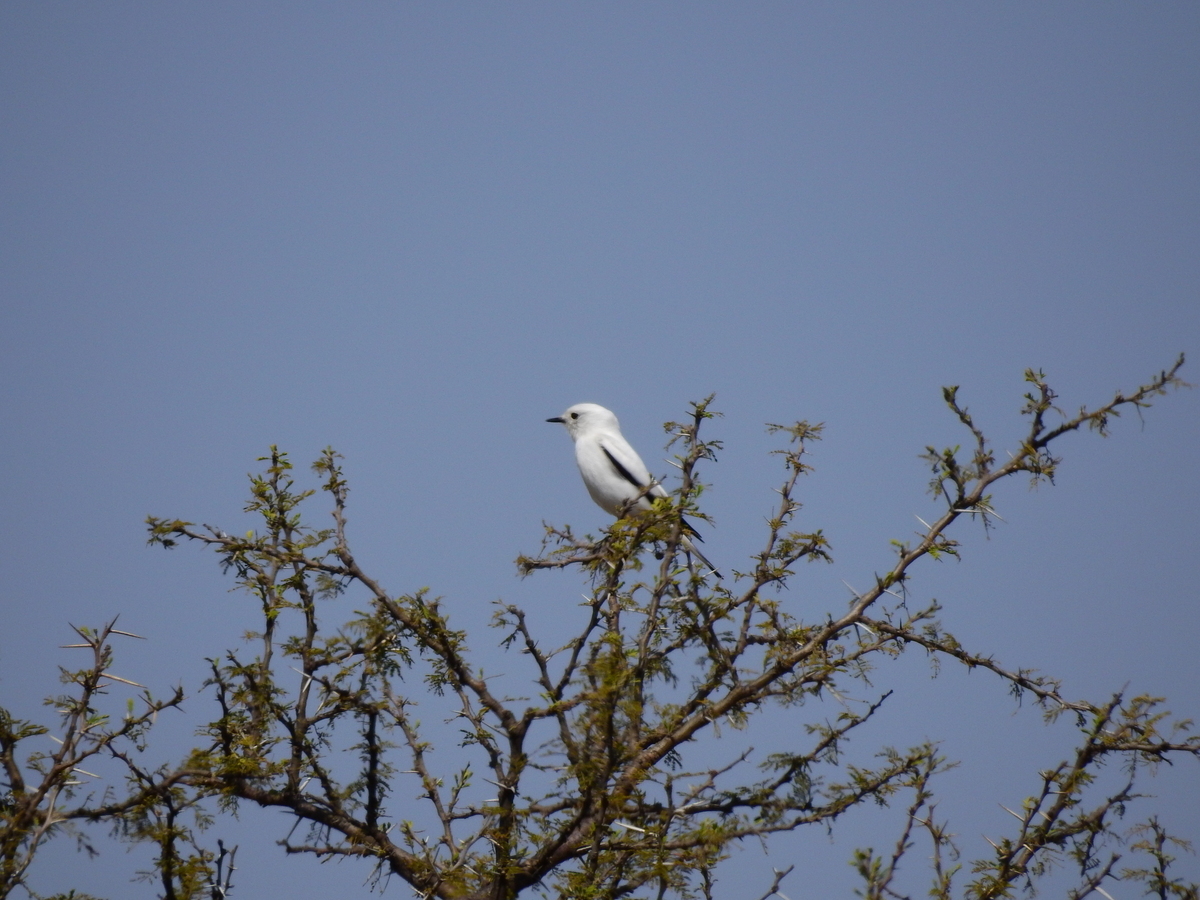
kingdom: Animalia
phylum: Chordata
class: Aves
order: Passeriformes
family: Tyrannidae
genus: Xolmis
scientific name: Xolmis irupero
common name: White monjita
